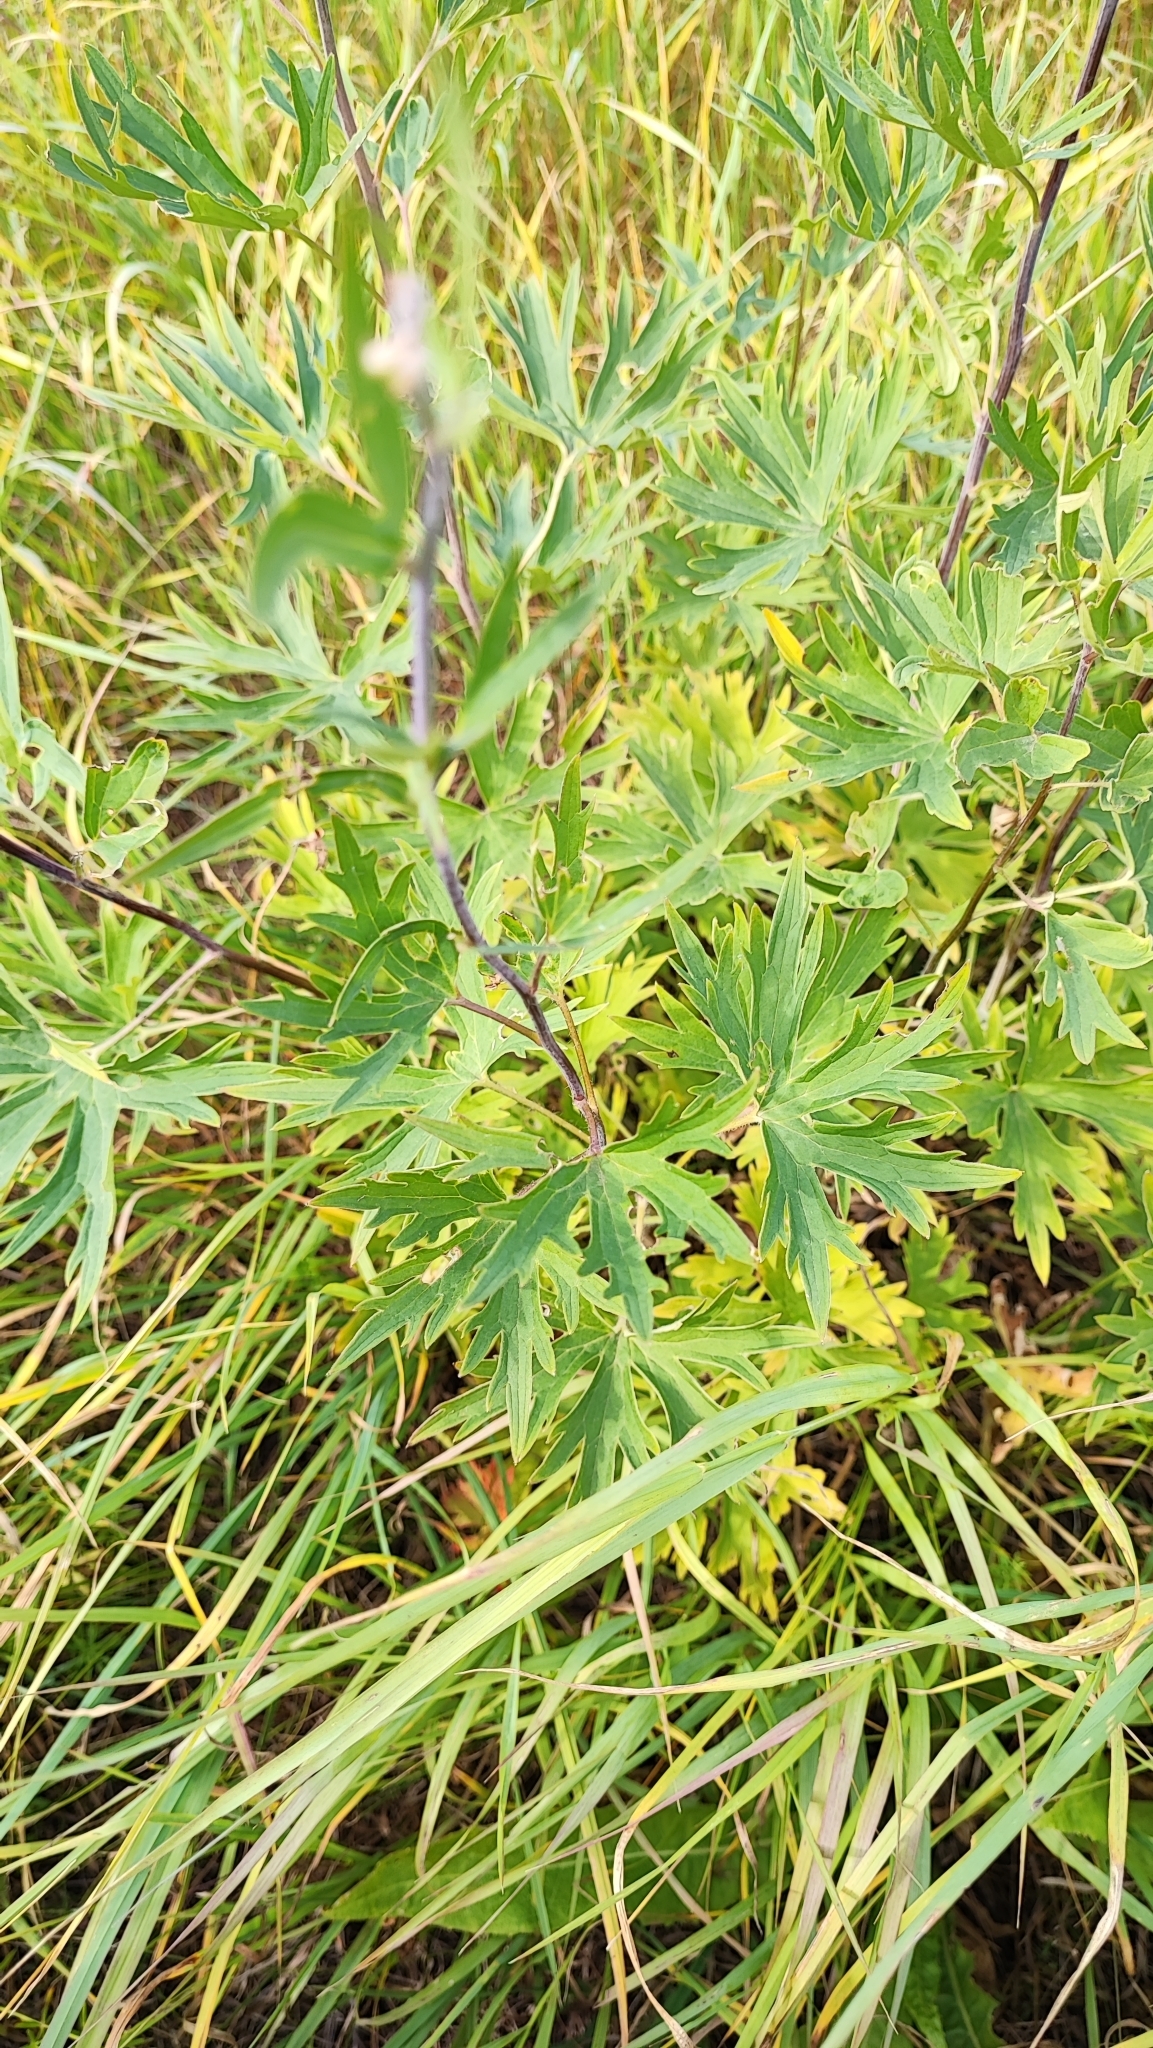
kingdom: Plantae
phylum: Tracheophyta
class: Magnoliopsida
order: Ranunculales
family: Ranunculaceae
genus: Delphinium
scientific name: Delphinium cuneatum
